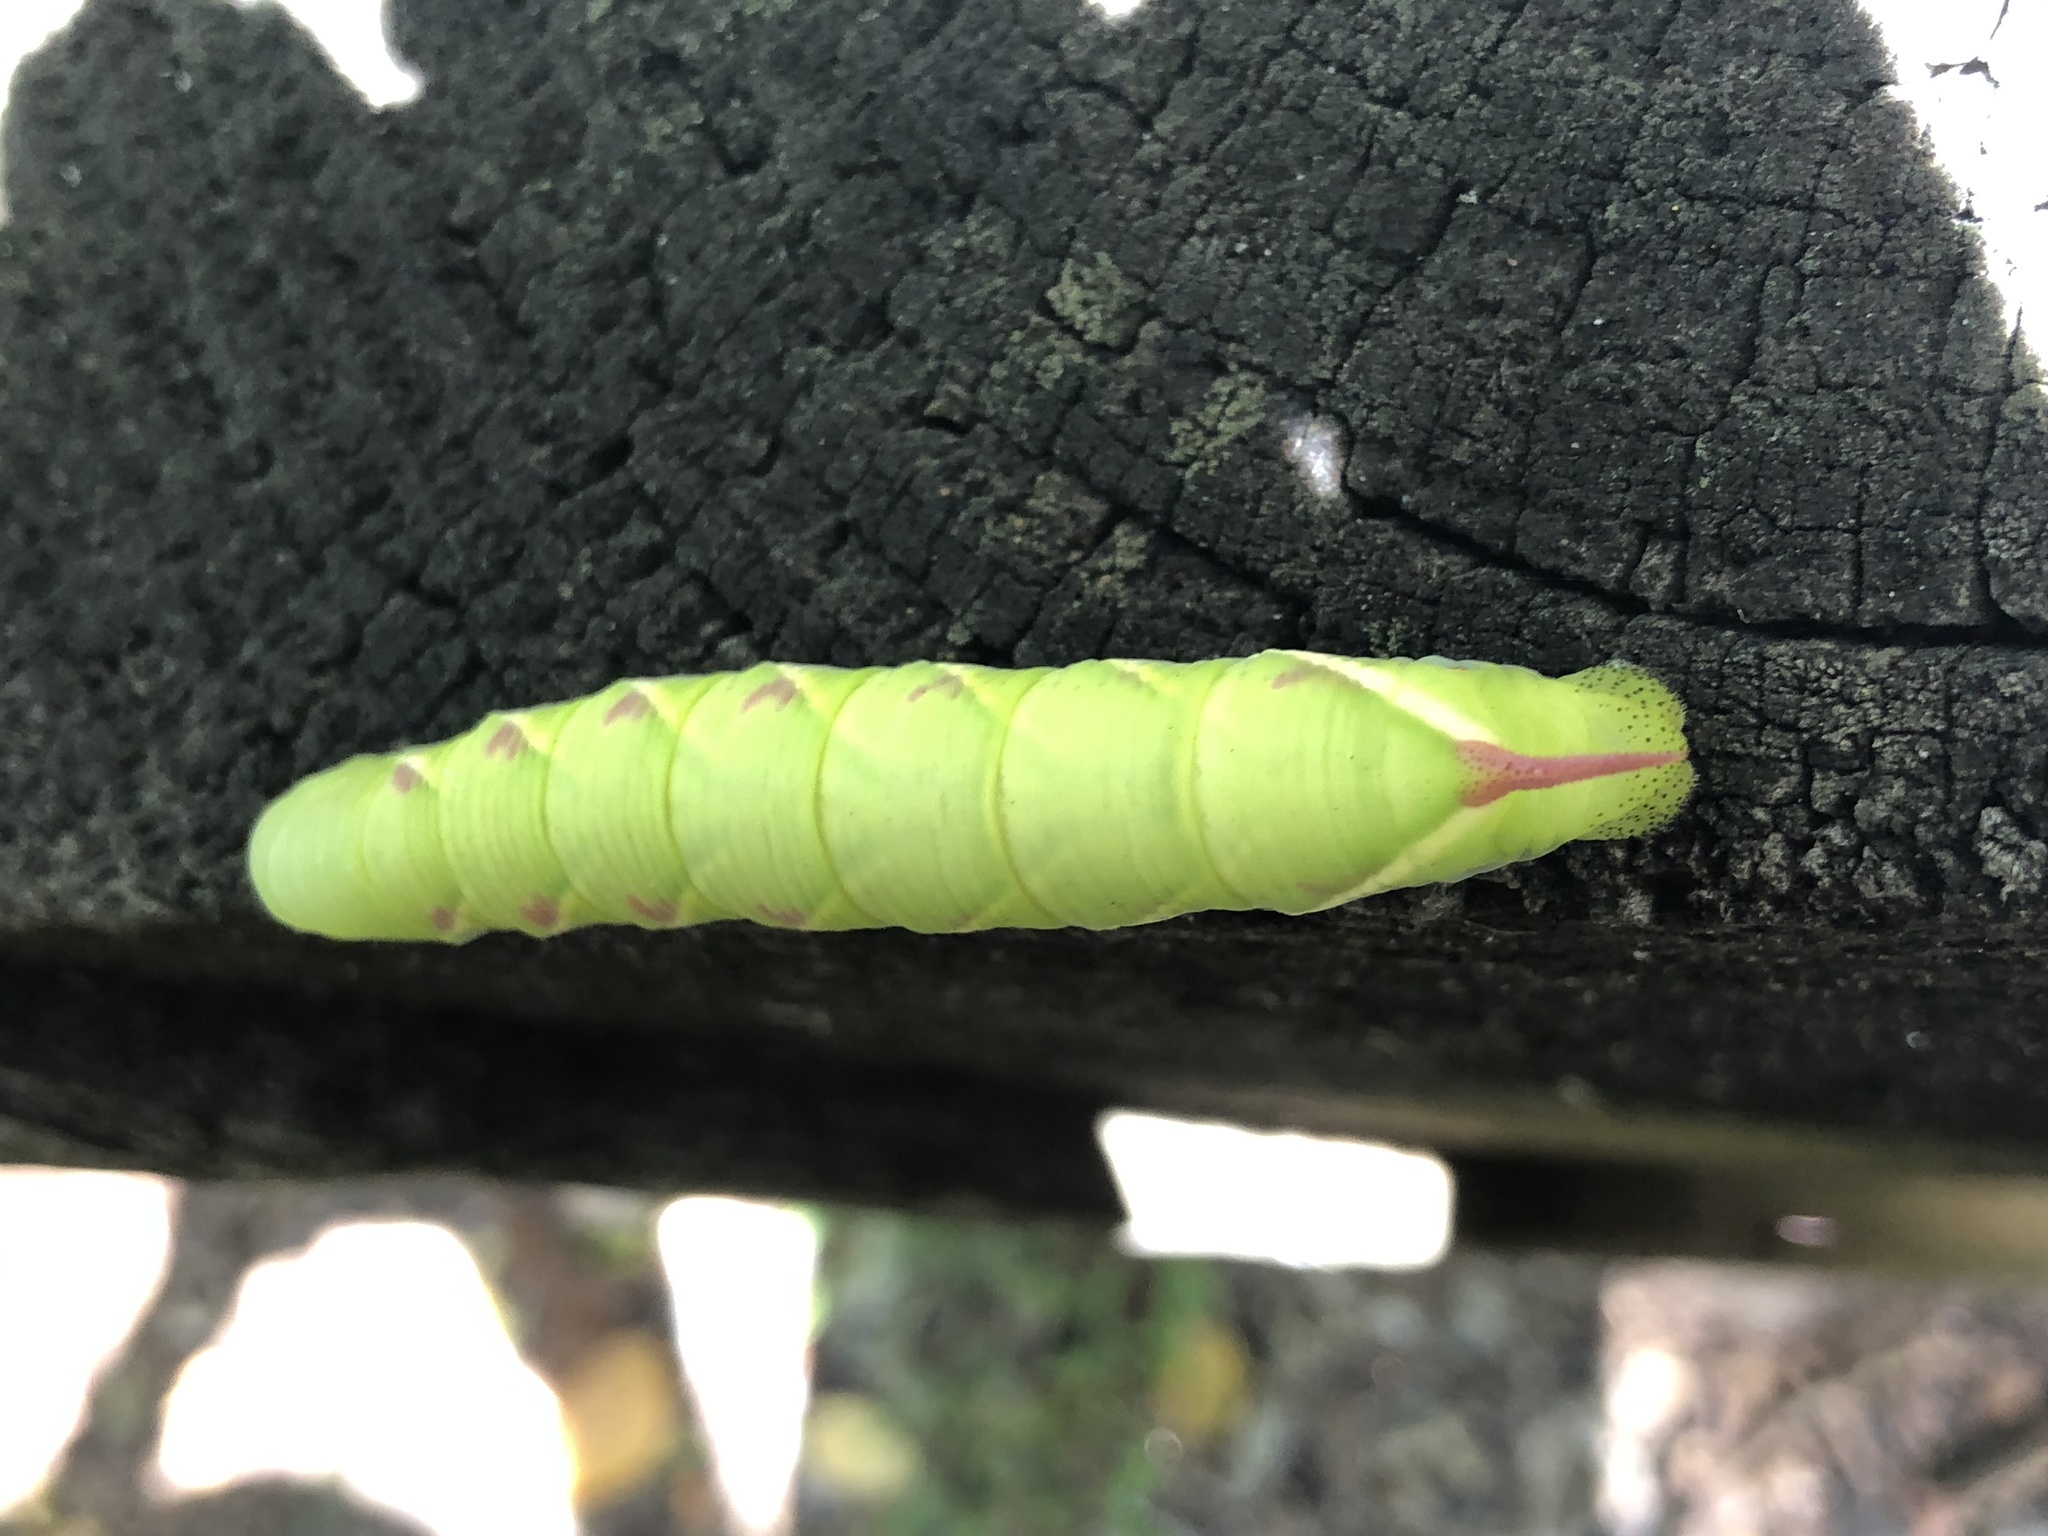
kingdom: Animalia
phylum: Arthropoda
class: Insecta
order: Lepidoptera
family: Sphingidae
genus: Ceratomia
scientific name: Ceratomia undulosa
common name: Waved sphinx
